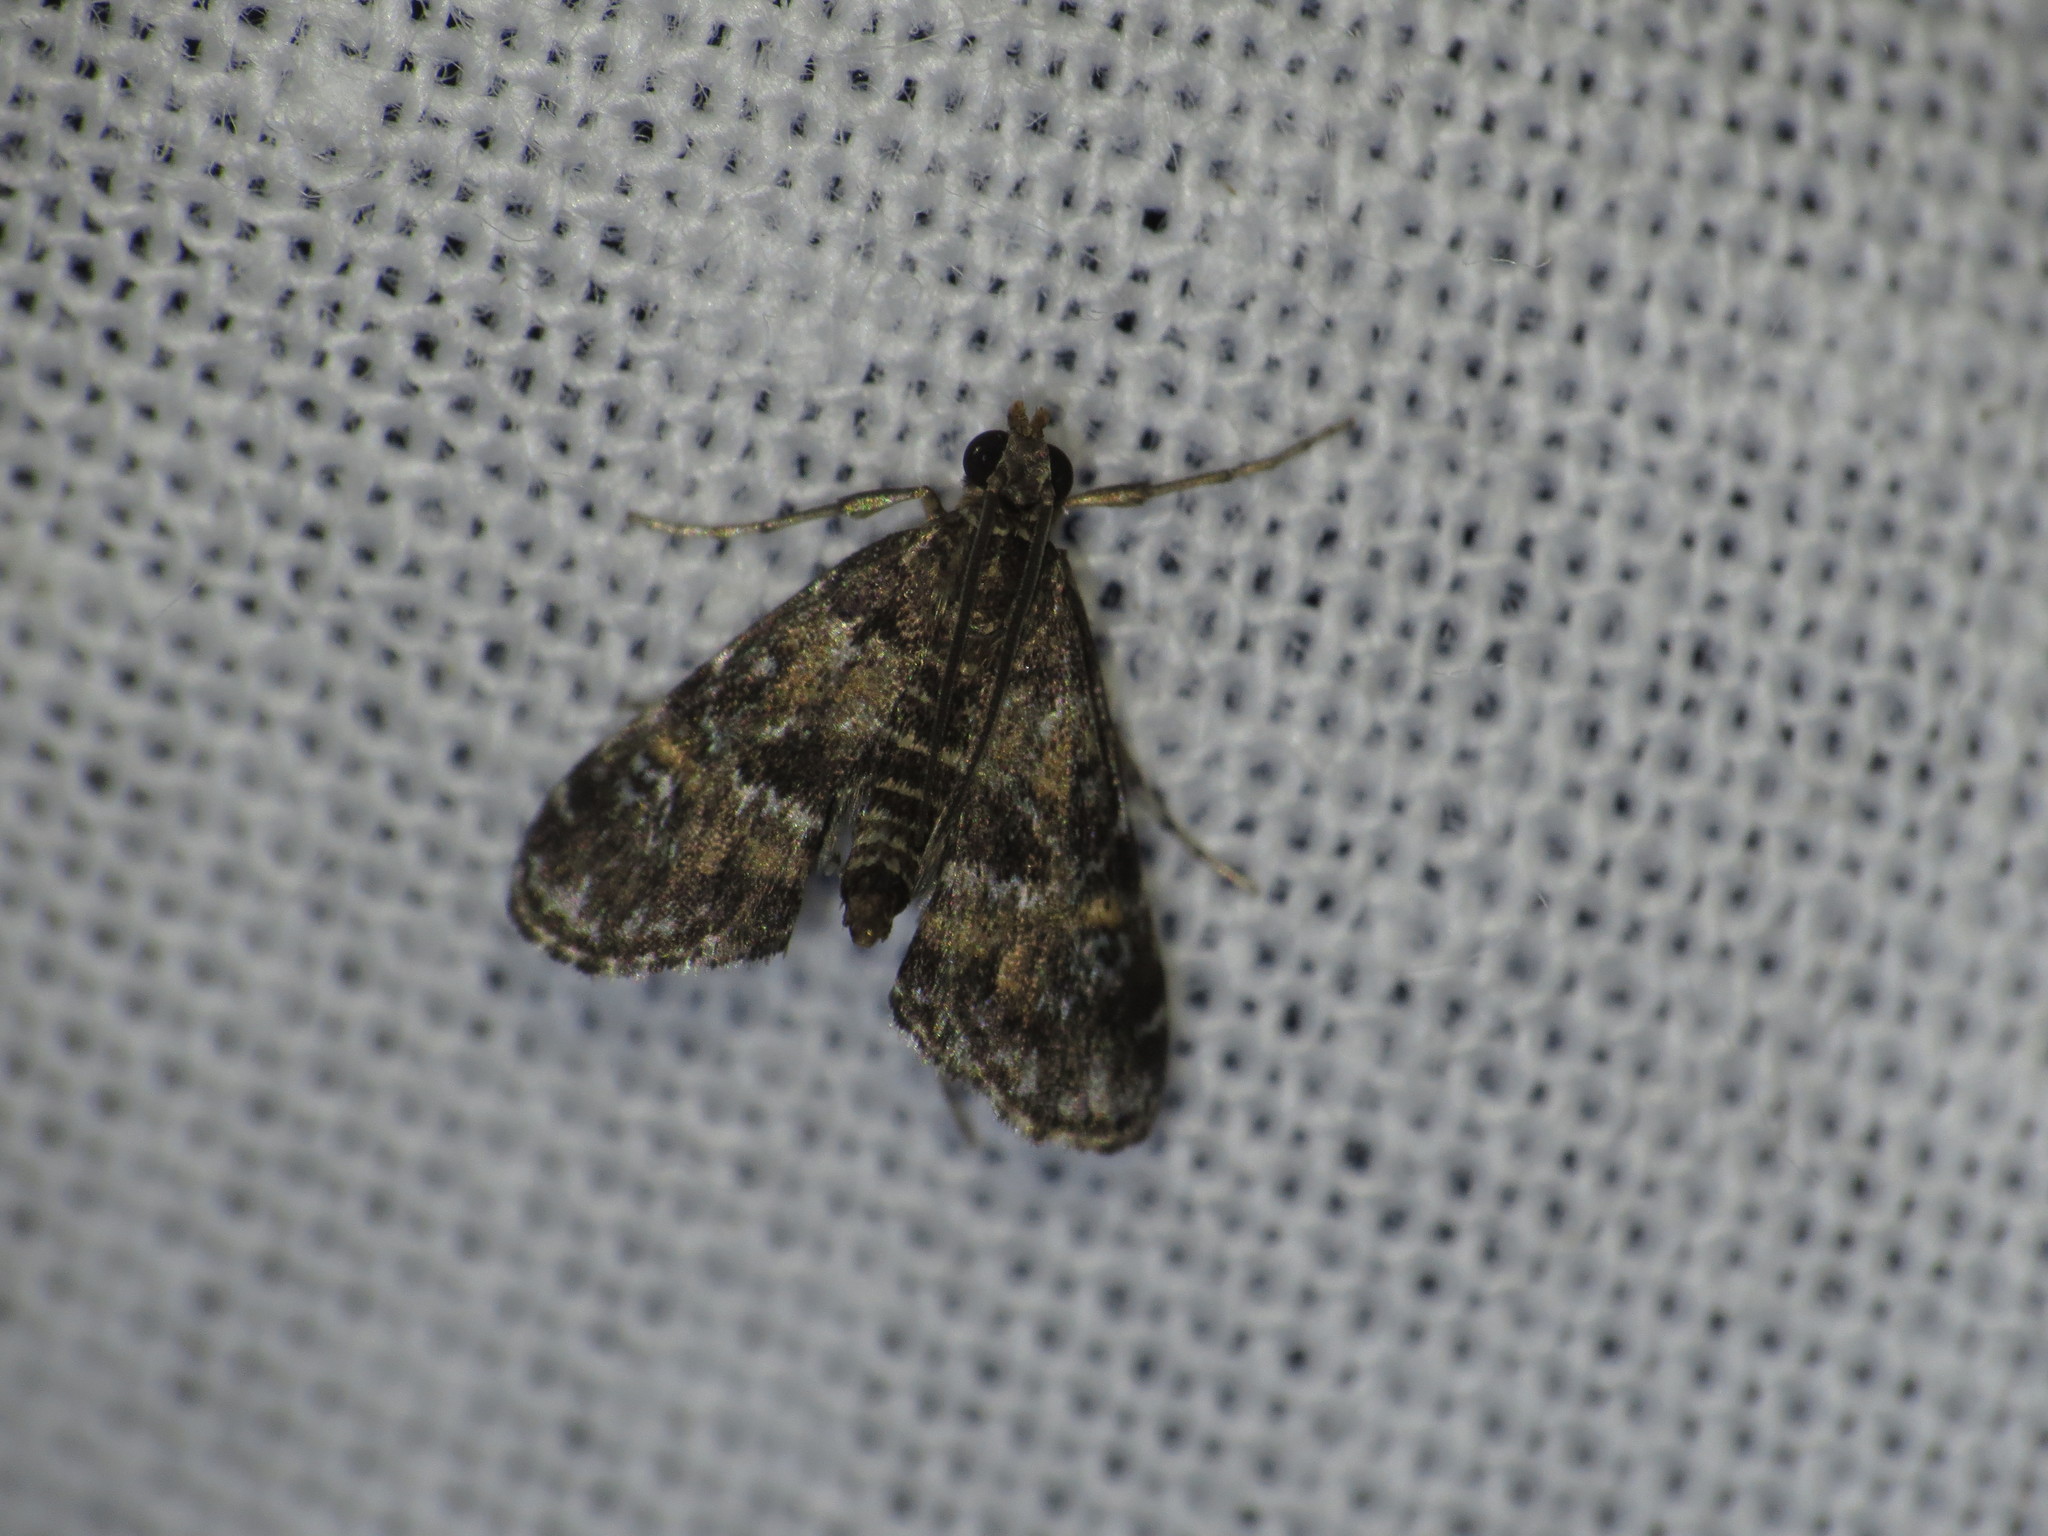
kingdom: Animalia
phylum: Arthropoda
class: Insecta
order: Lepidoptera
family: Crambidae
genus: Elophila
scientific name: Elophila obliteralis
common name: Waterlily leafcutter moth
